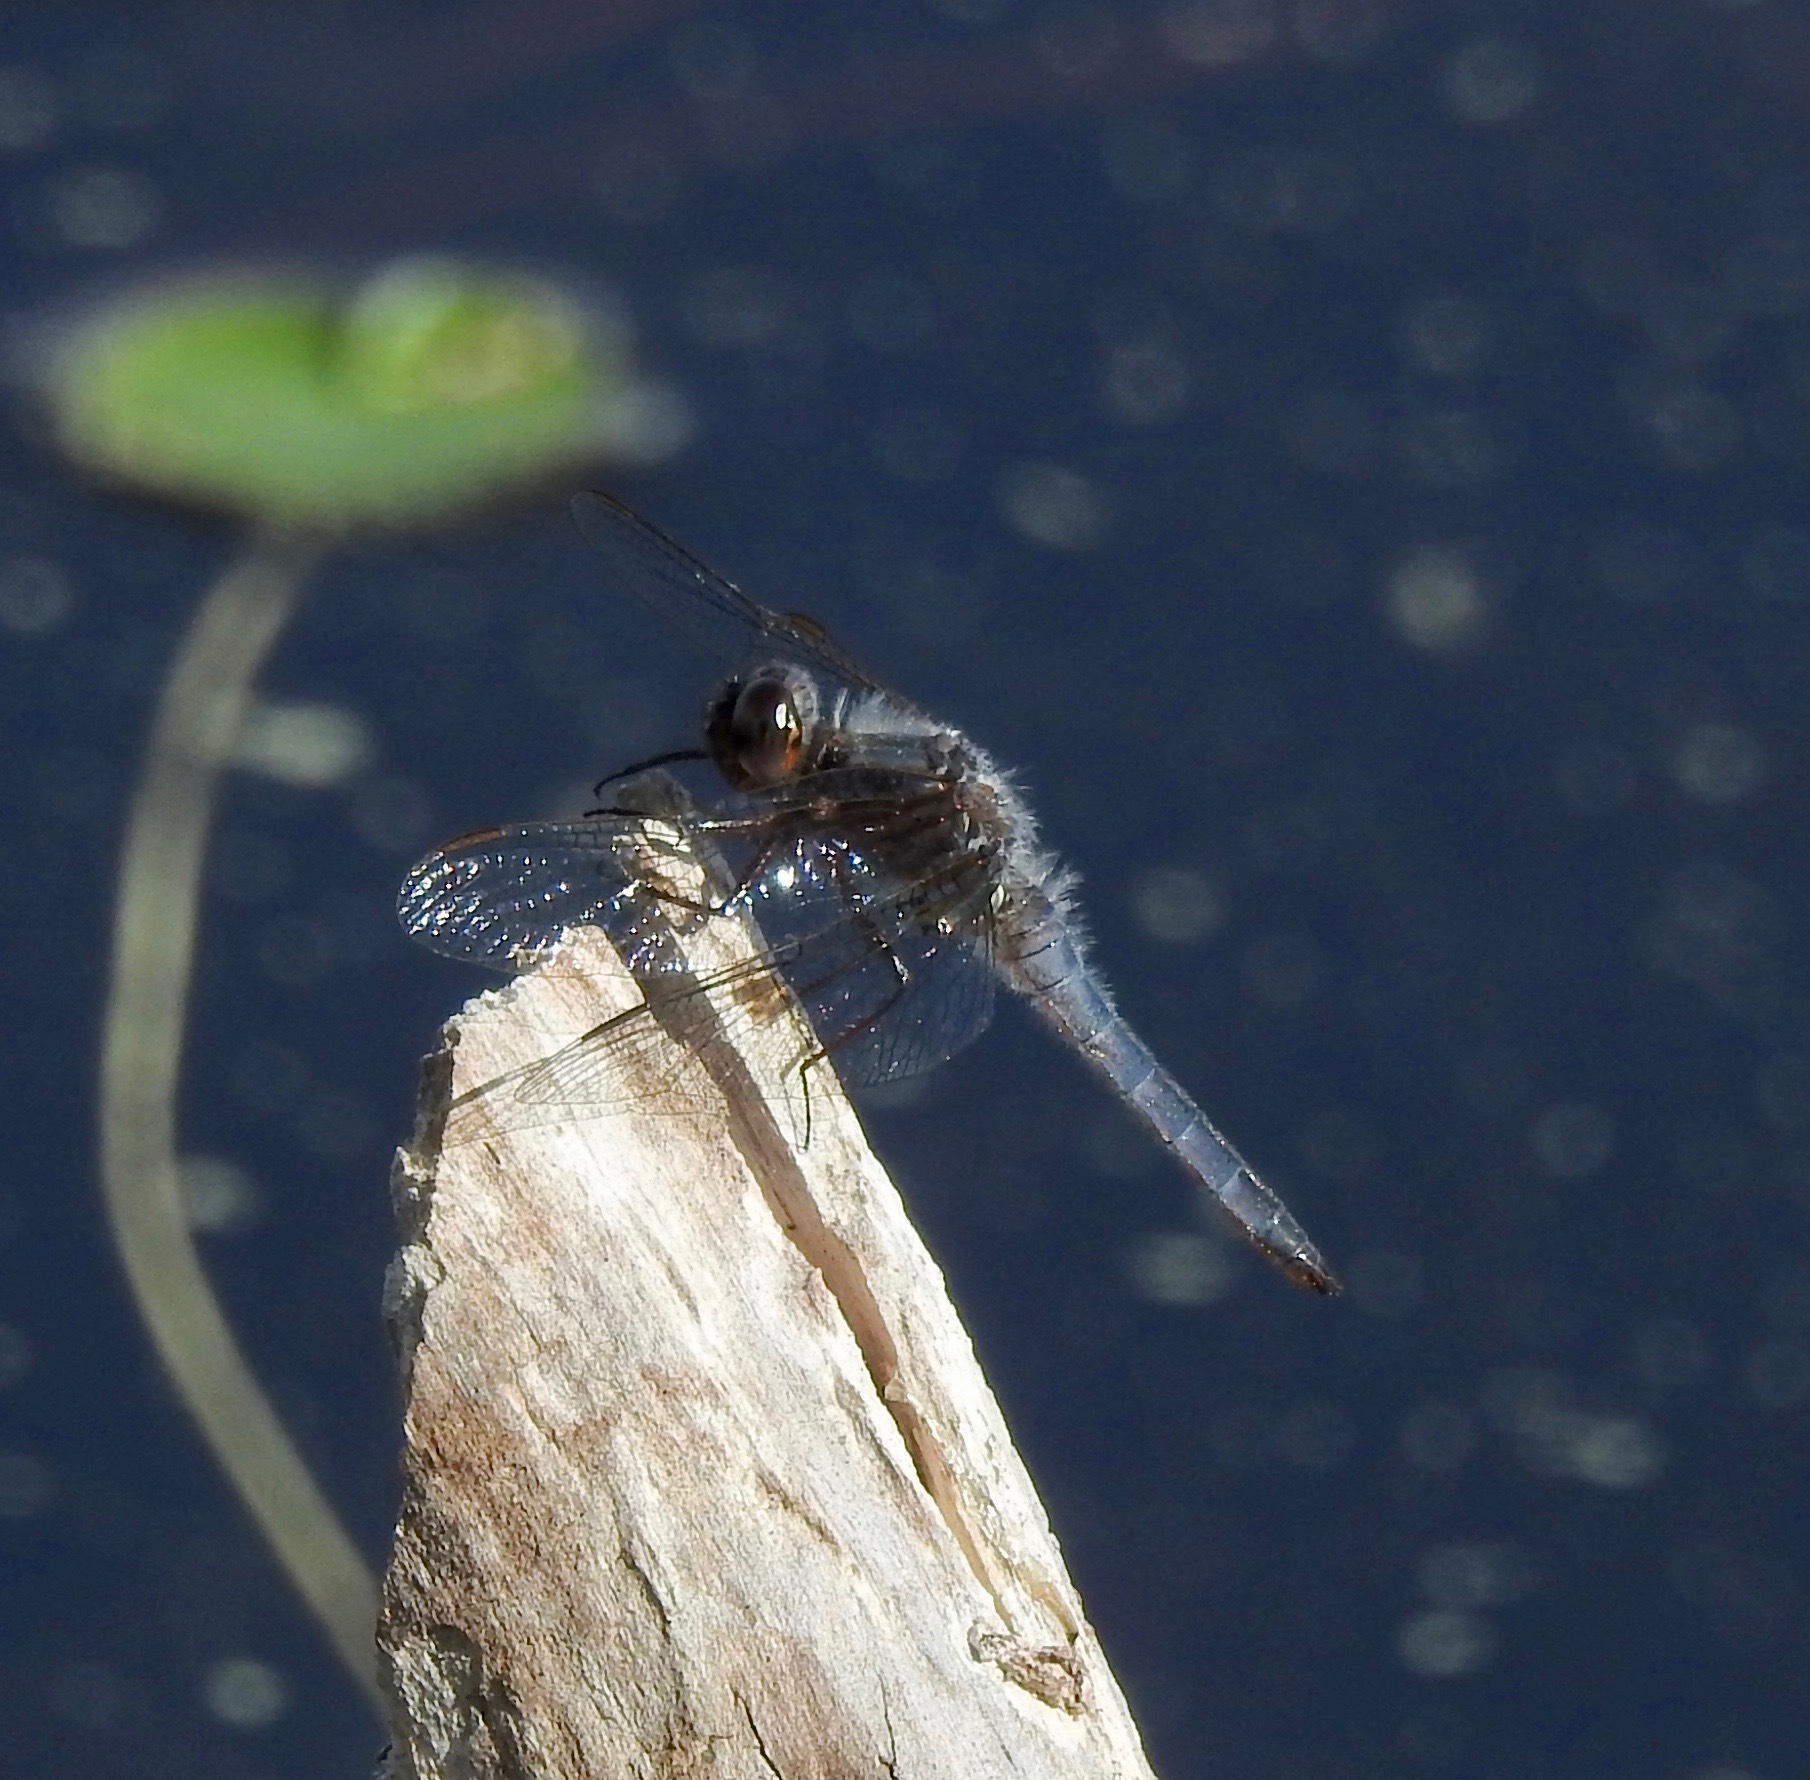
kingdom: Animalia
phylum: Arthropoda
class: Insecta
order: Odonata
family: Libellulidae
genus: Ladona
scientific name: Ladona deplanata
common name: Blue corporal
